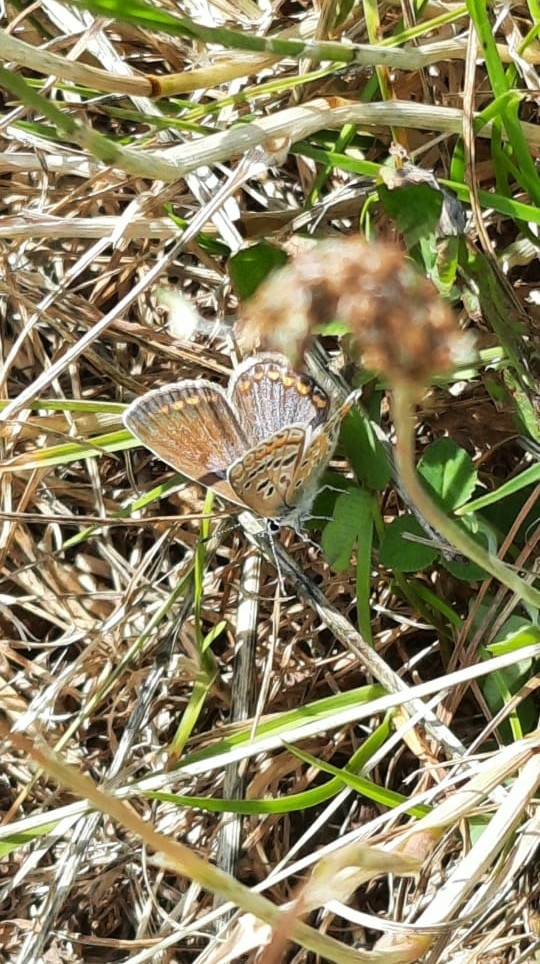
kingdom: Animalia
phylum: Arthropoda
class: Insecta
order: Lepidoptera
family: Lycaenidae
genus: Polyommatus
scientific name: Polyommatus icarus
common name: Common blue
